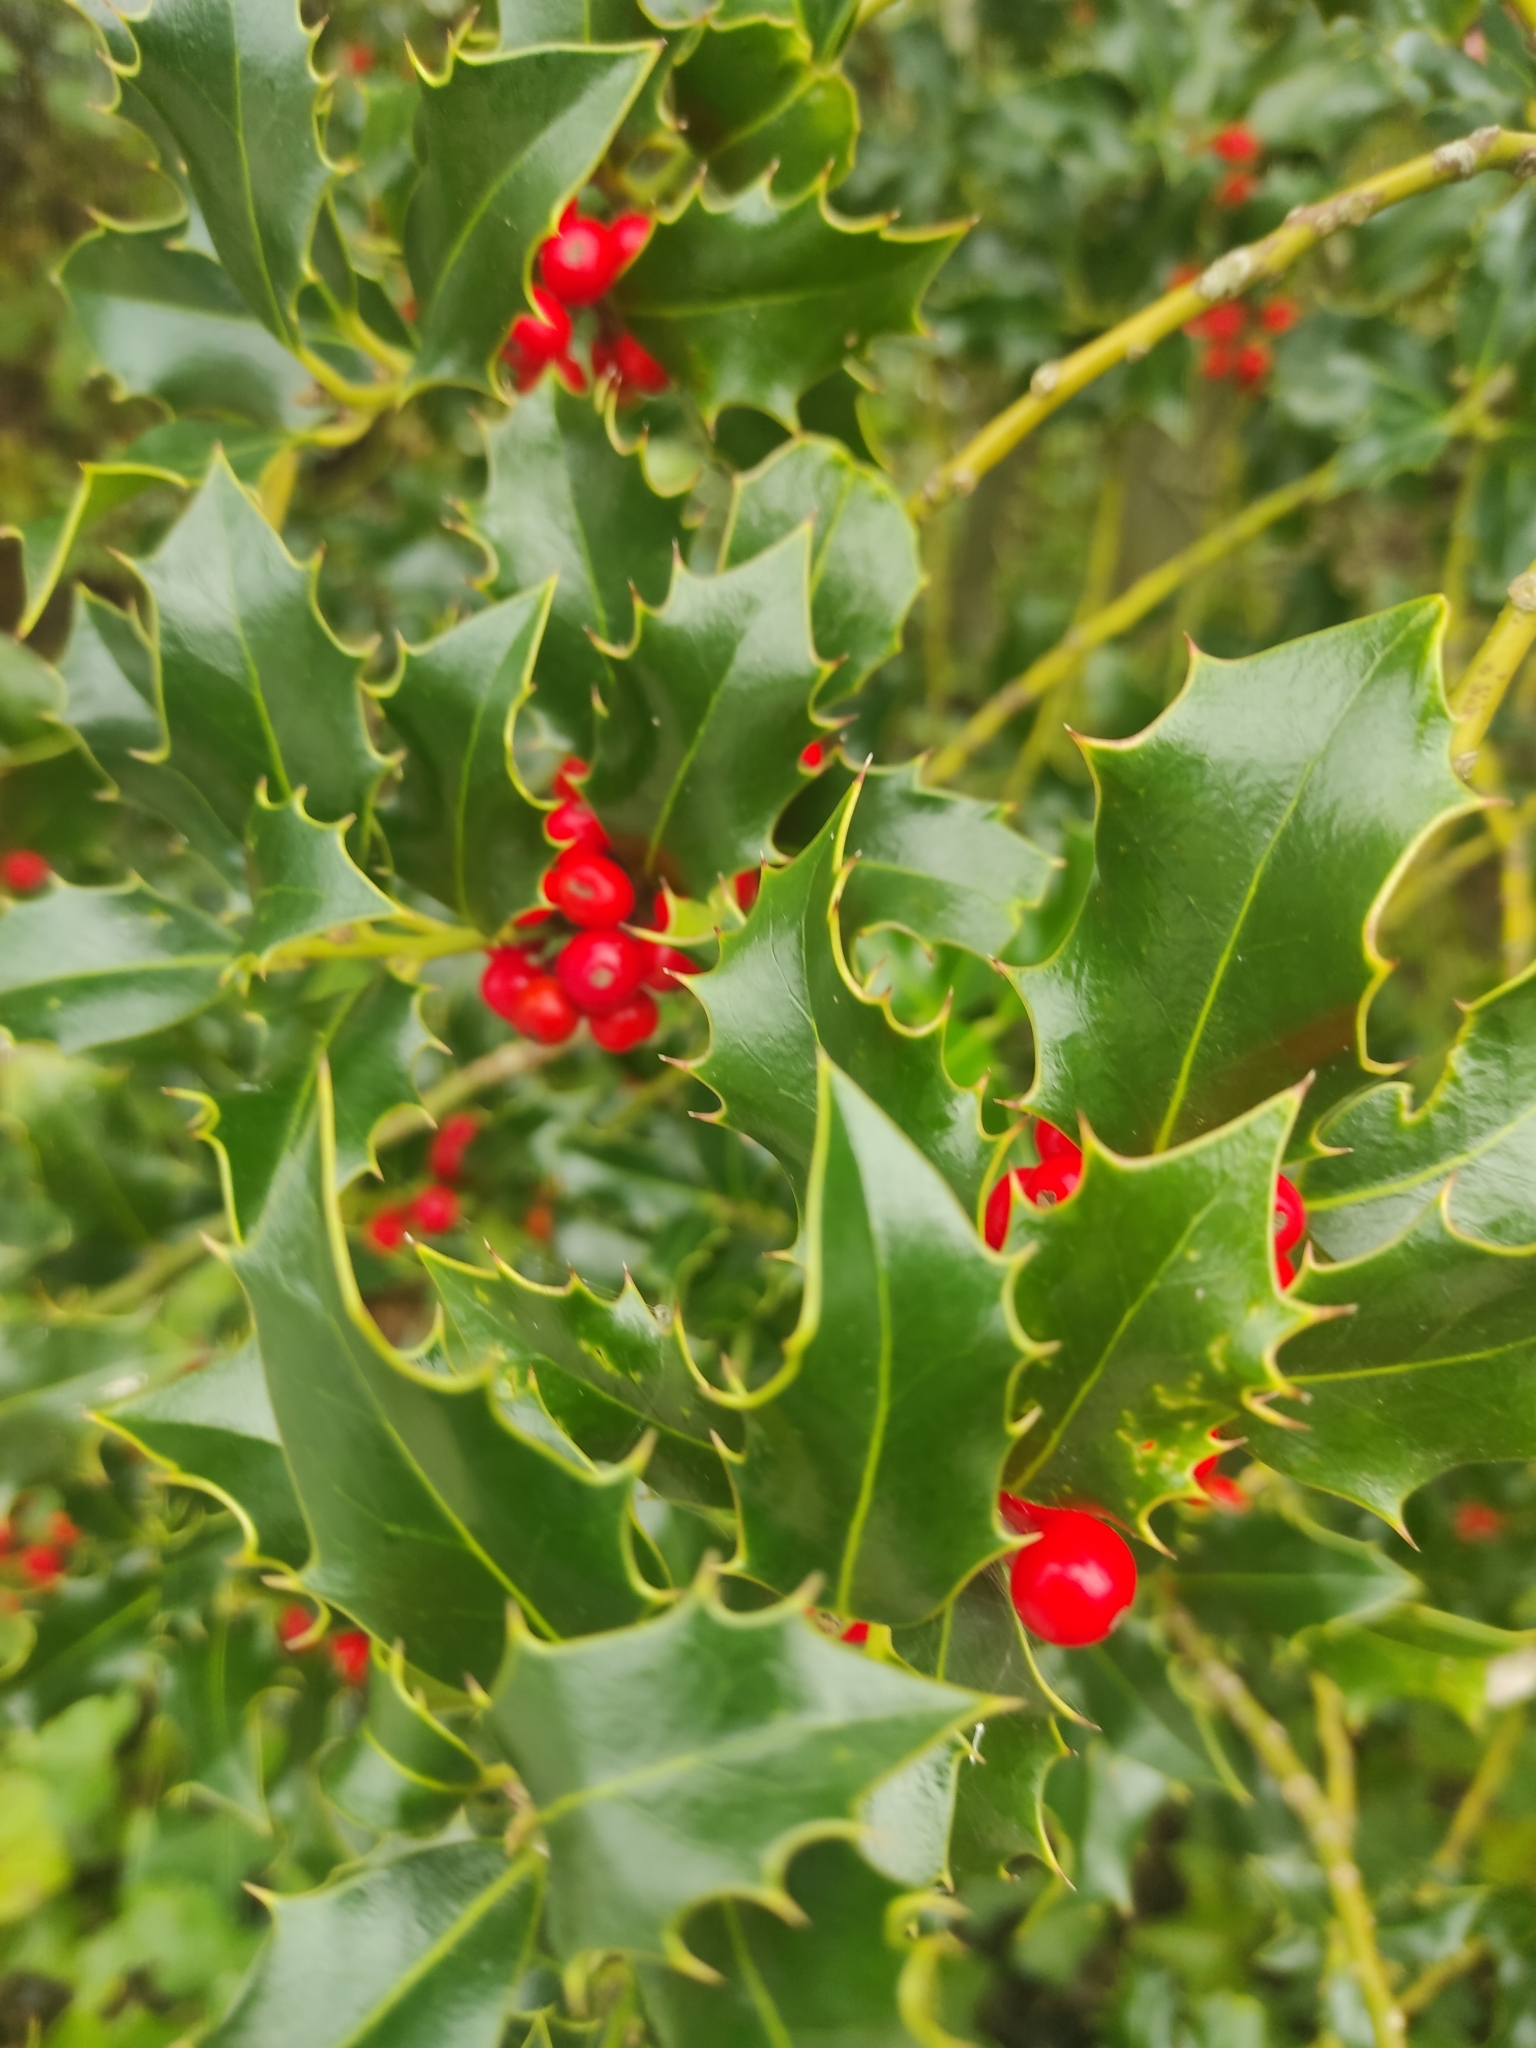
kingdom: Plantae
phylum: Tracheophyta
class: Magnoliopsida
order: Aquifoliales
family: Aquifoliaceae
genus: Ilex
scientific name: Ilex aquifolium
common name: English holly
